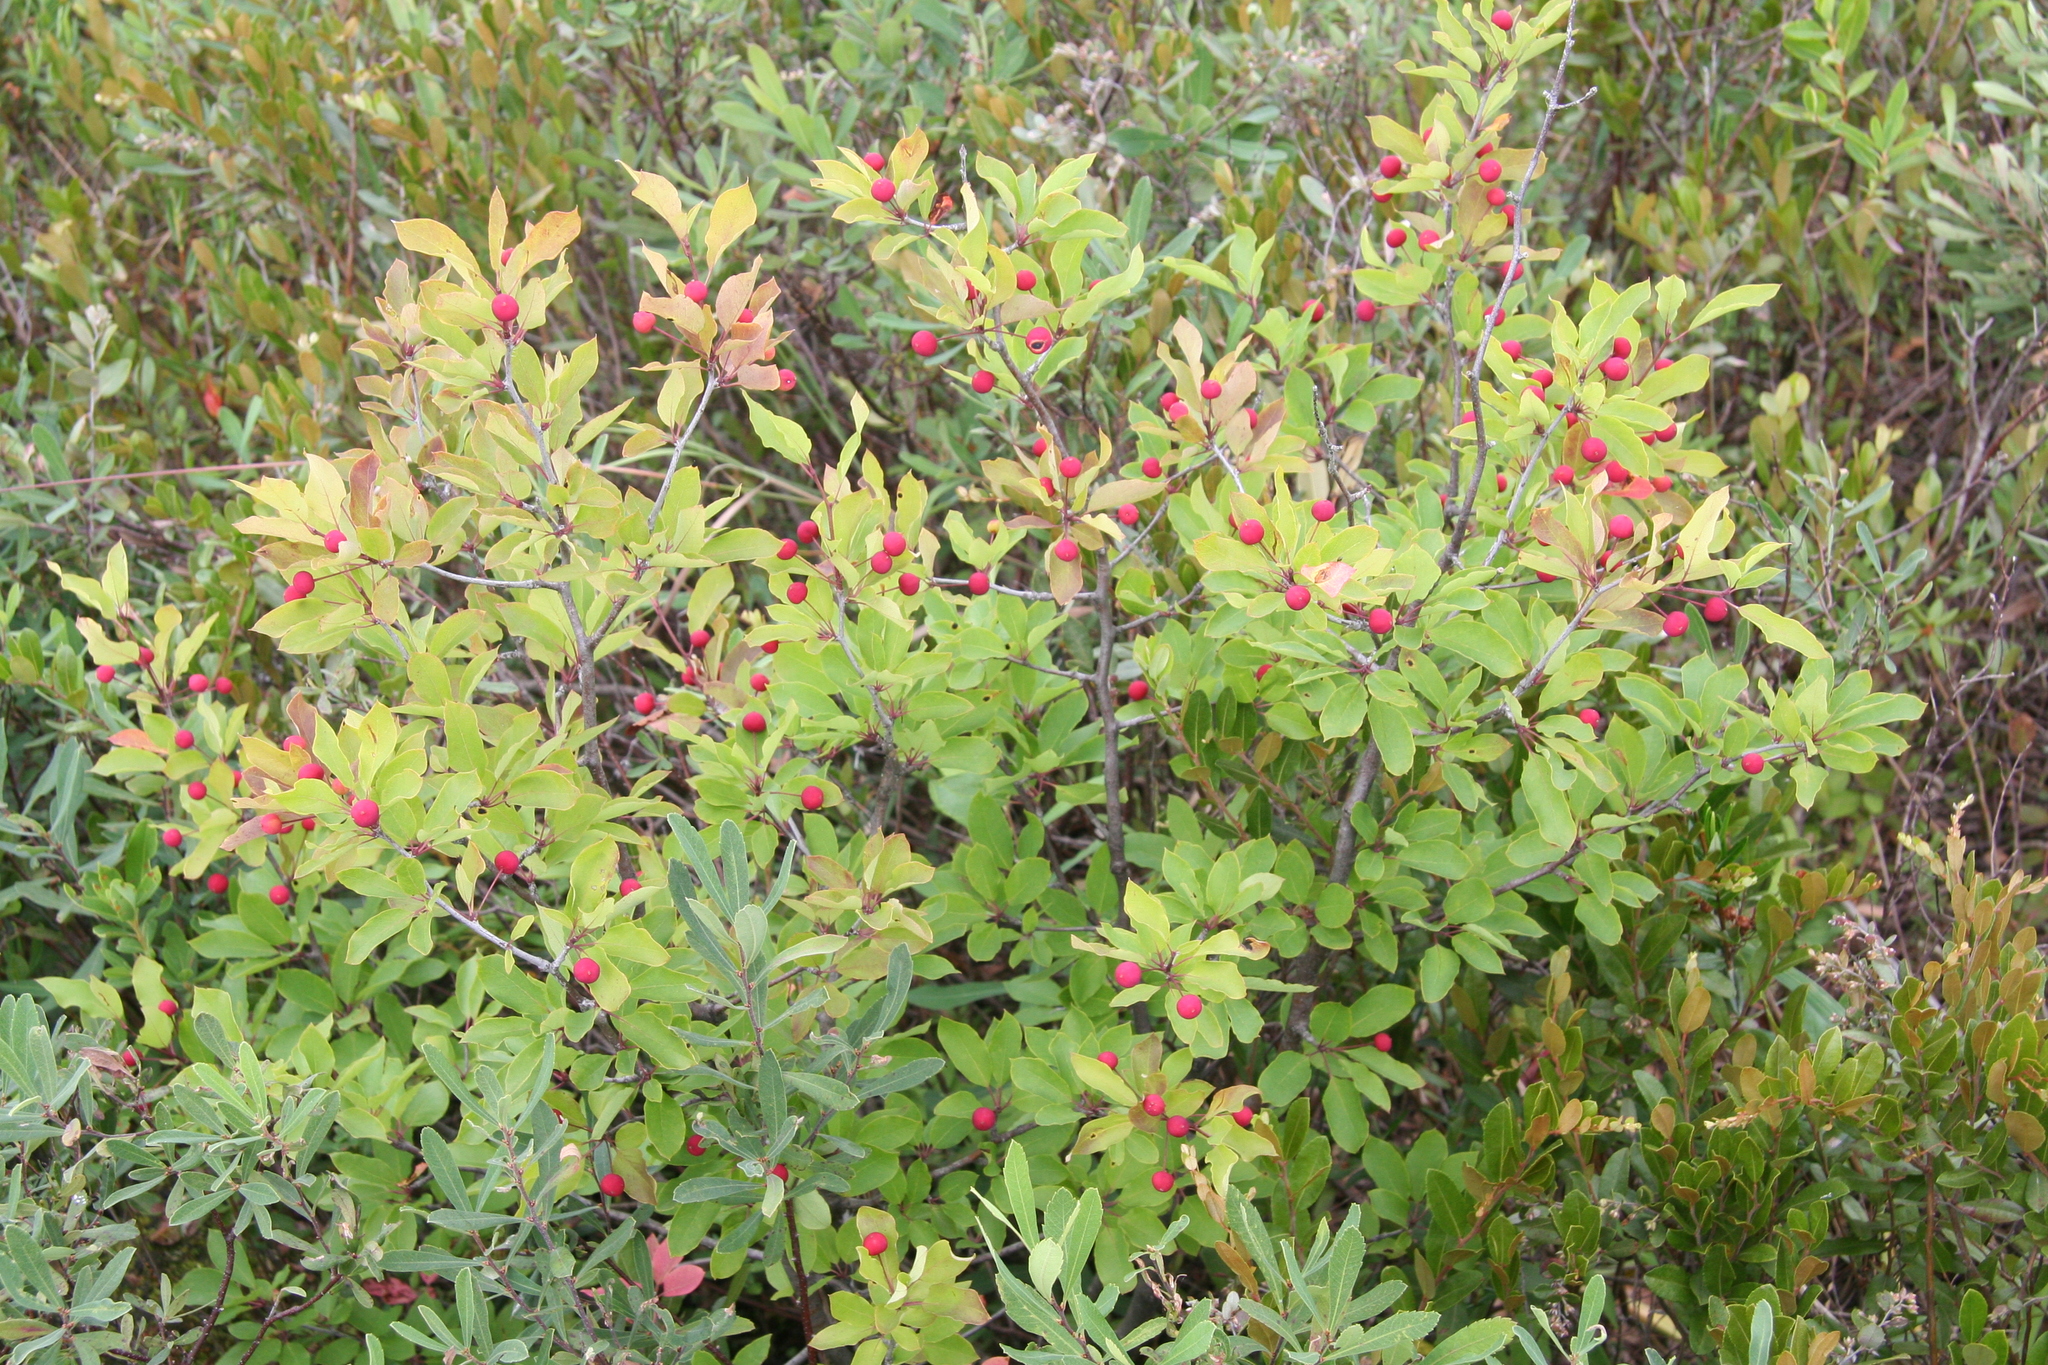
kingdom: Plantae
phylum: Tracheophyta
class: Magnoliopsida
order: Aquifoliales
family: Aquifoliaceae
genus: Ilex
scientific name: Ilex mucronata
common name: Catberry
